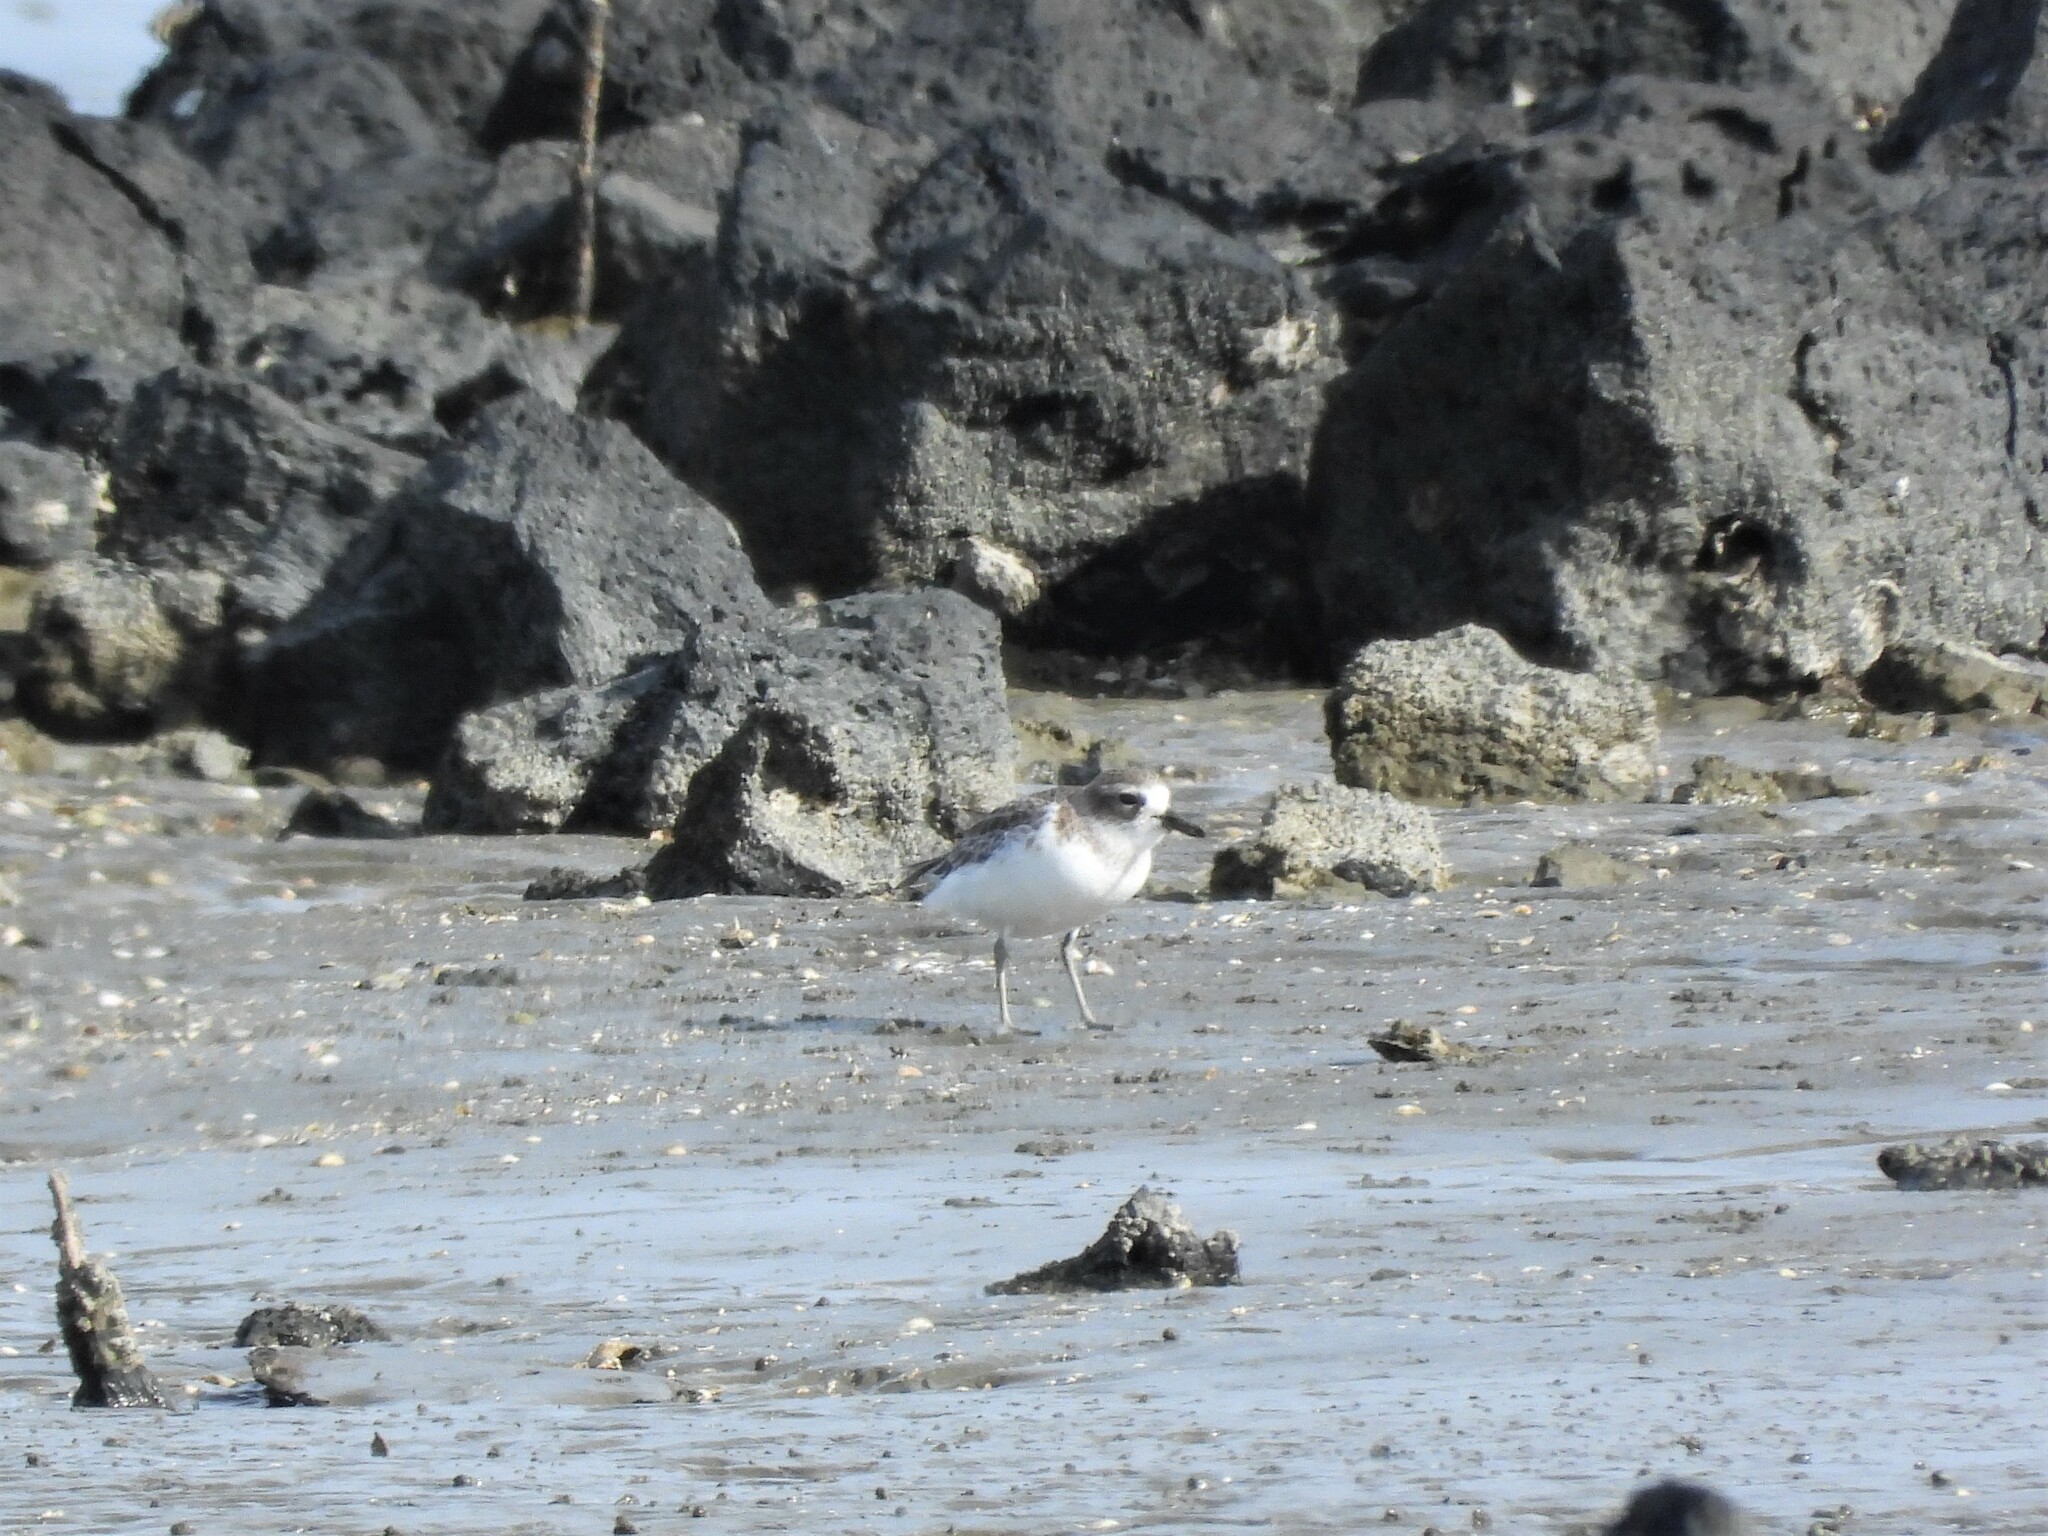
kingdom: Animalia
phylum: Chordata
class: Aves
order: Charadriiformes
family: Charadriidae
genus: Anarhynchus
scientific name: Anarhynchus
